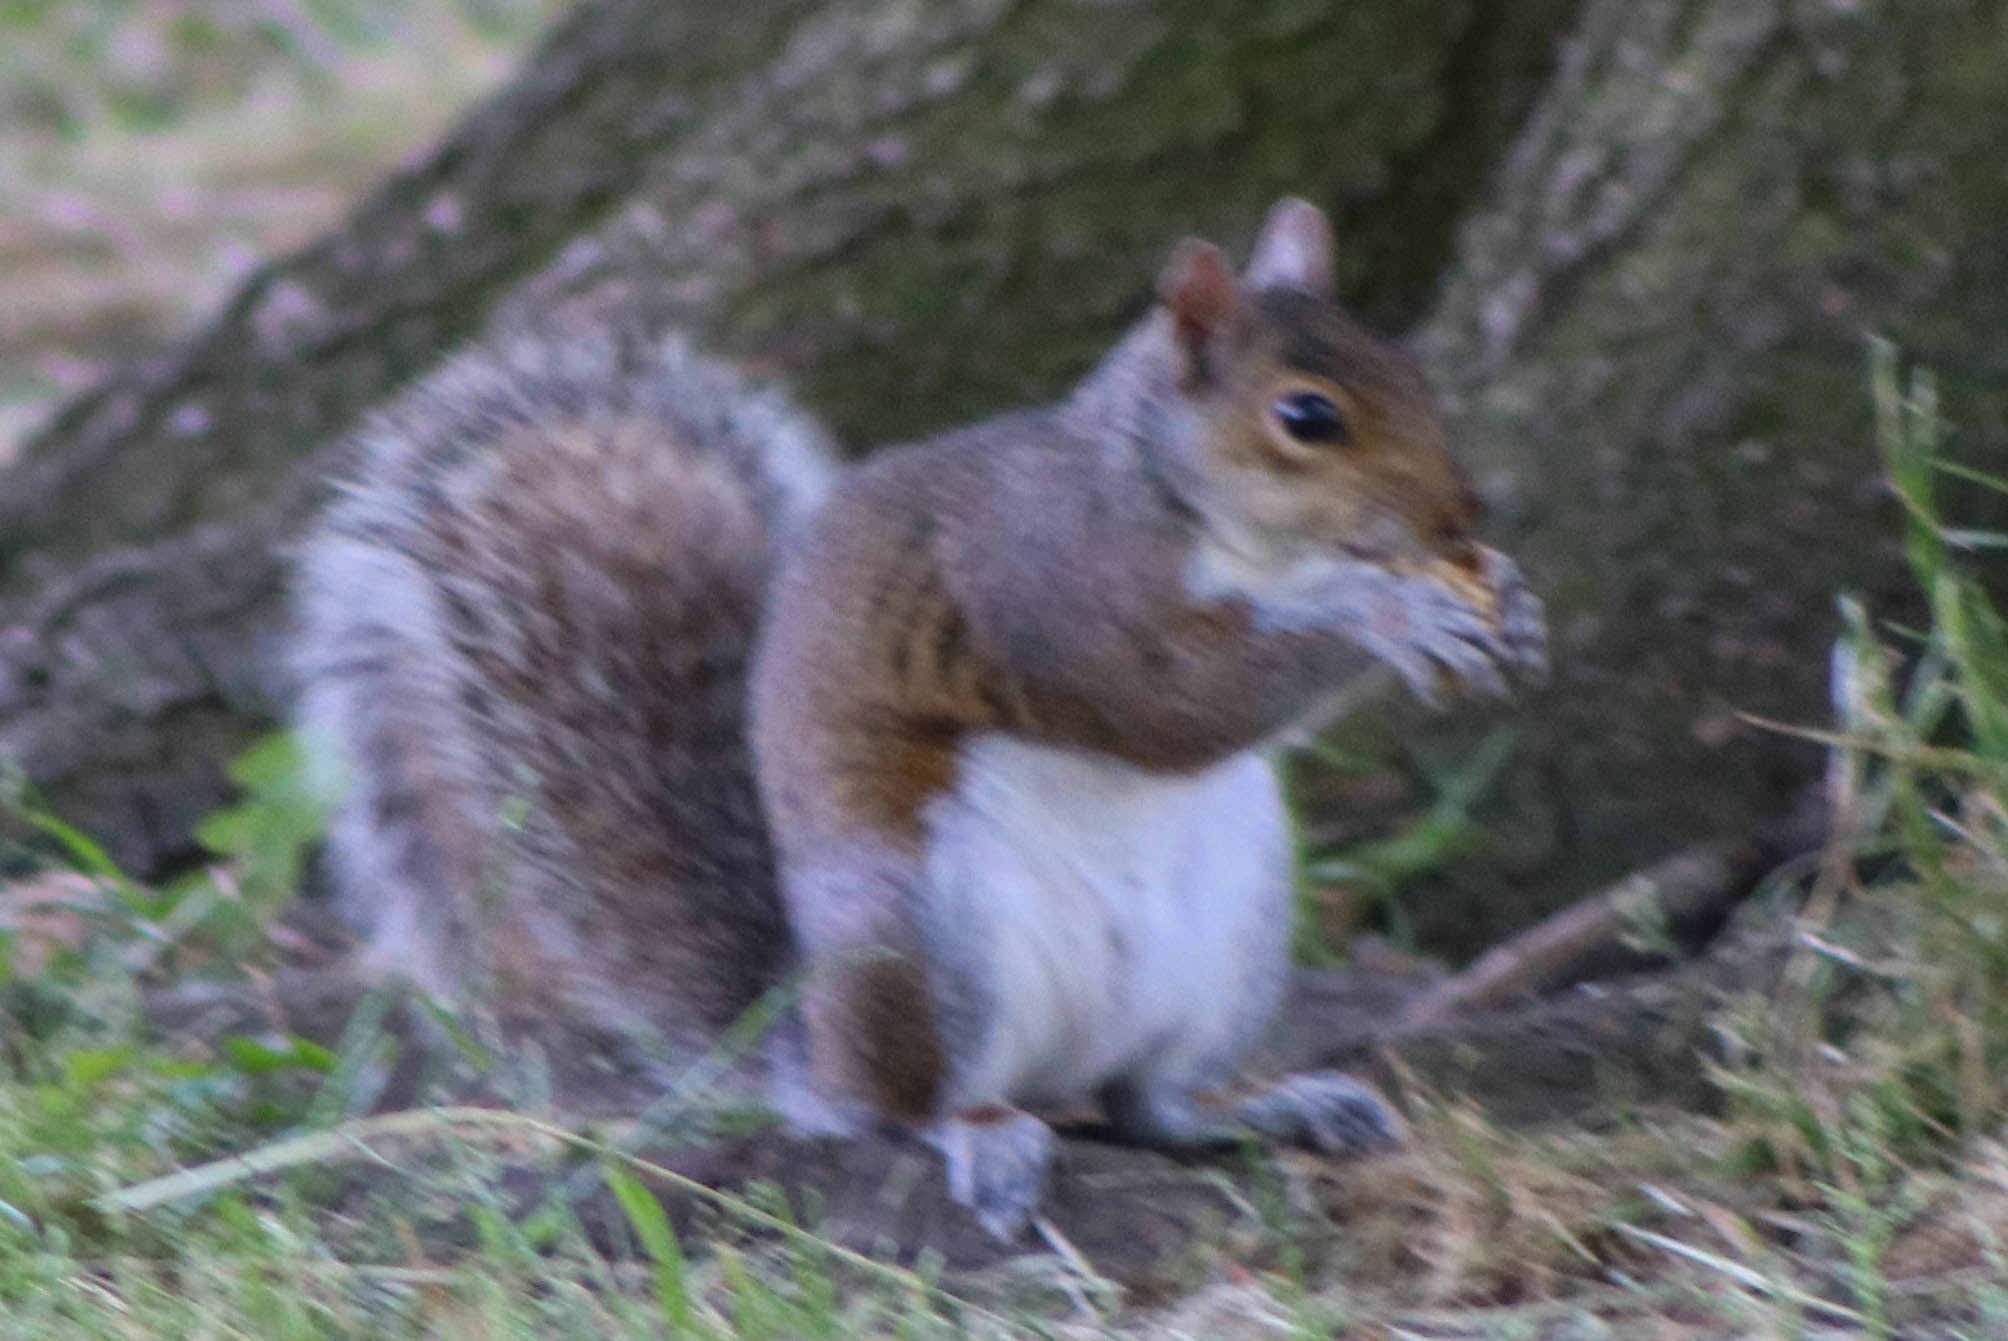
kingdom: Animalia
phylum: Chordata
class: Mammalia
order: Rodentia
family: Sciuridae
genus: Sciurus
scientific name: Sciurus carolinensis
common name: Eastern gray squirrel
